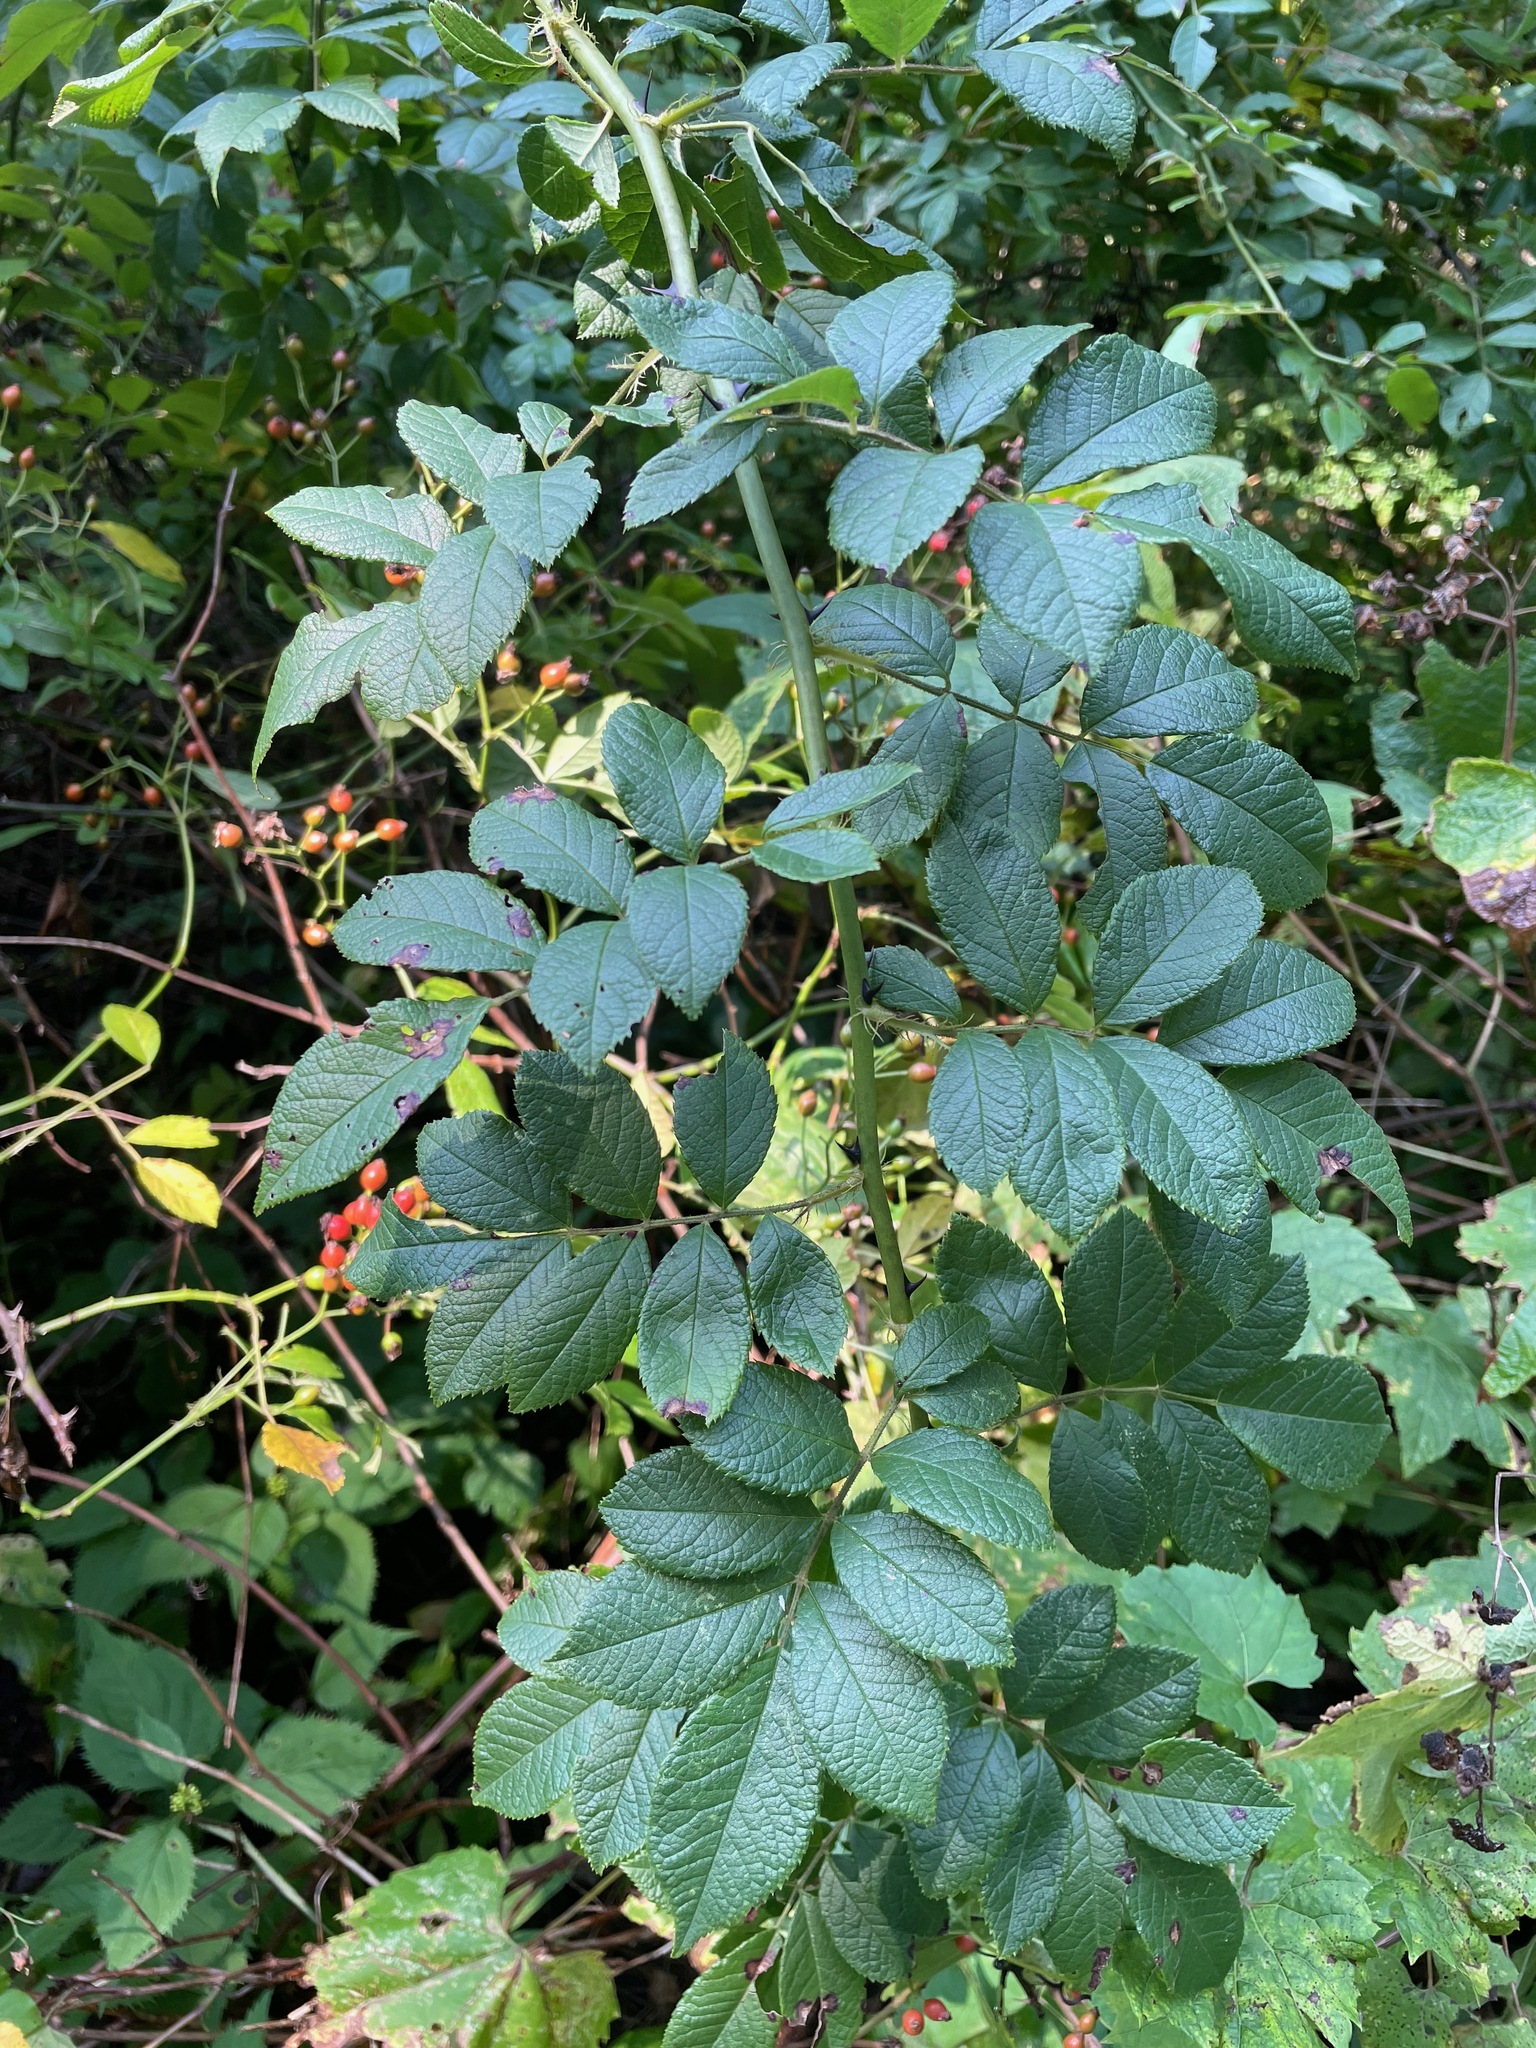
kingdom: Plantae
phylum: Tracheophyta
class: Magnoliopsida
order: Rosales
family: Rosaceae
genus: Rosa
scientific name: Rosa multiflora
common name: Multiflora rose
